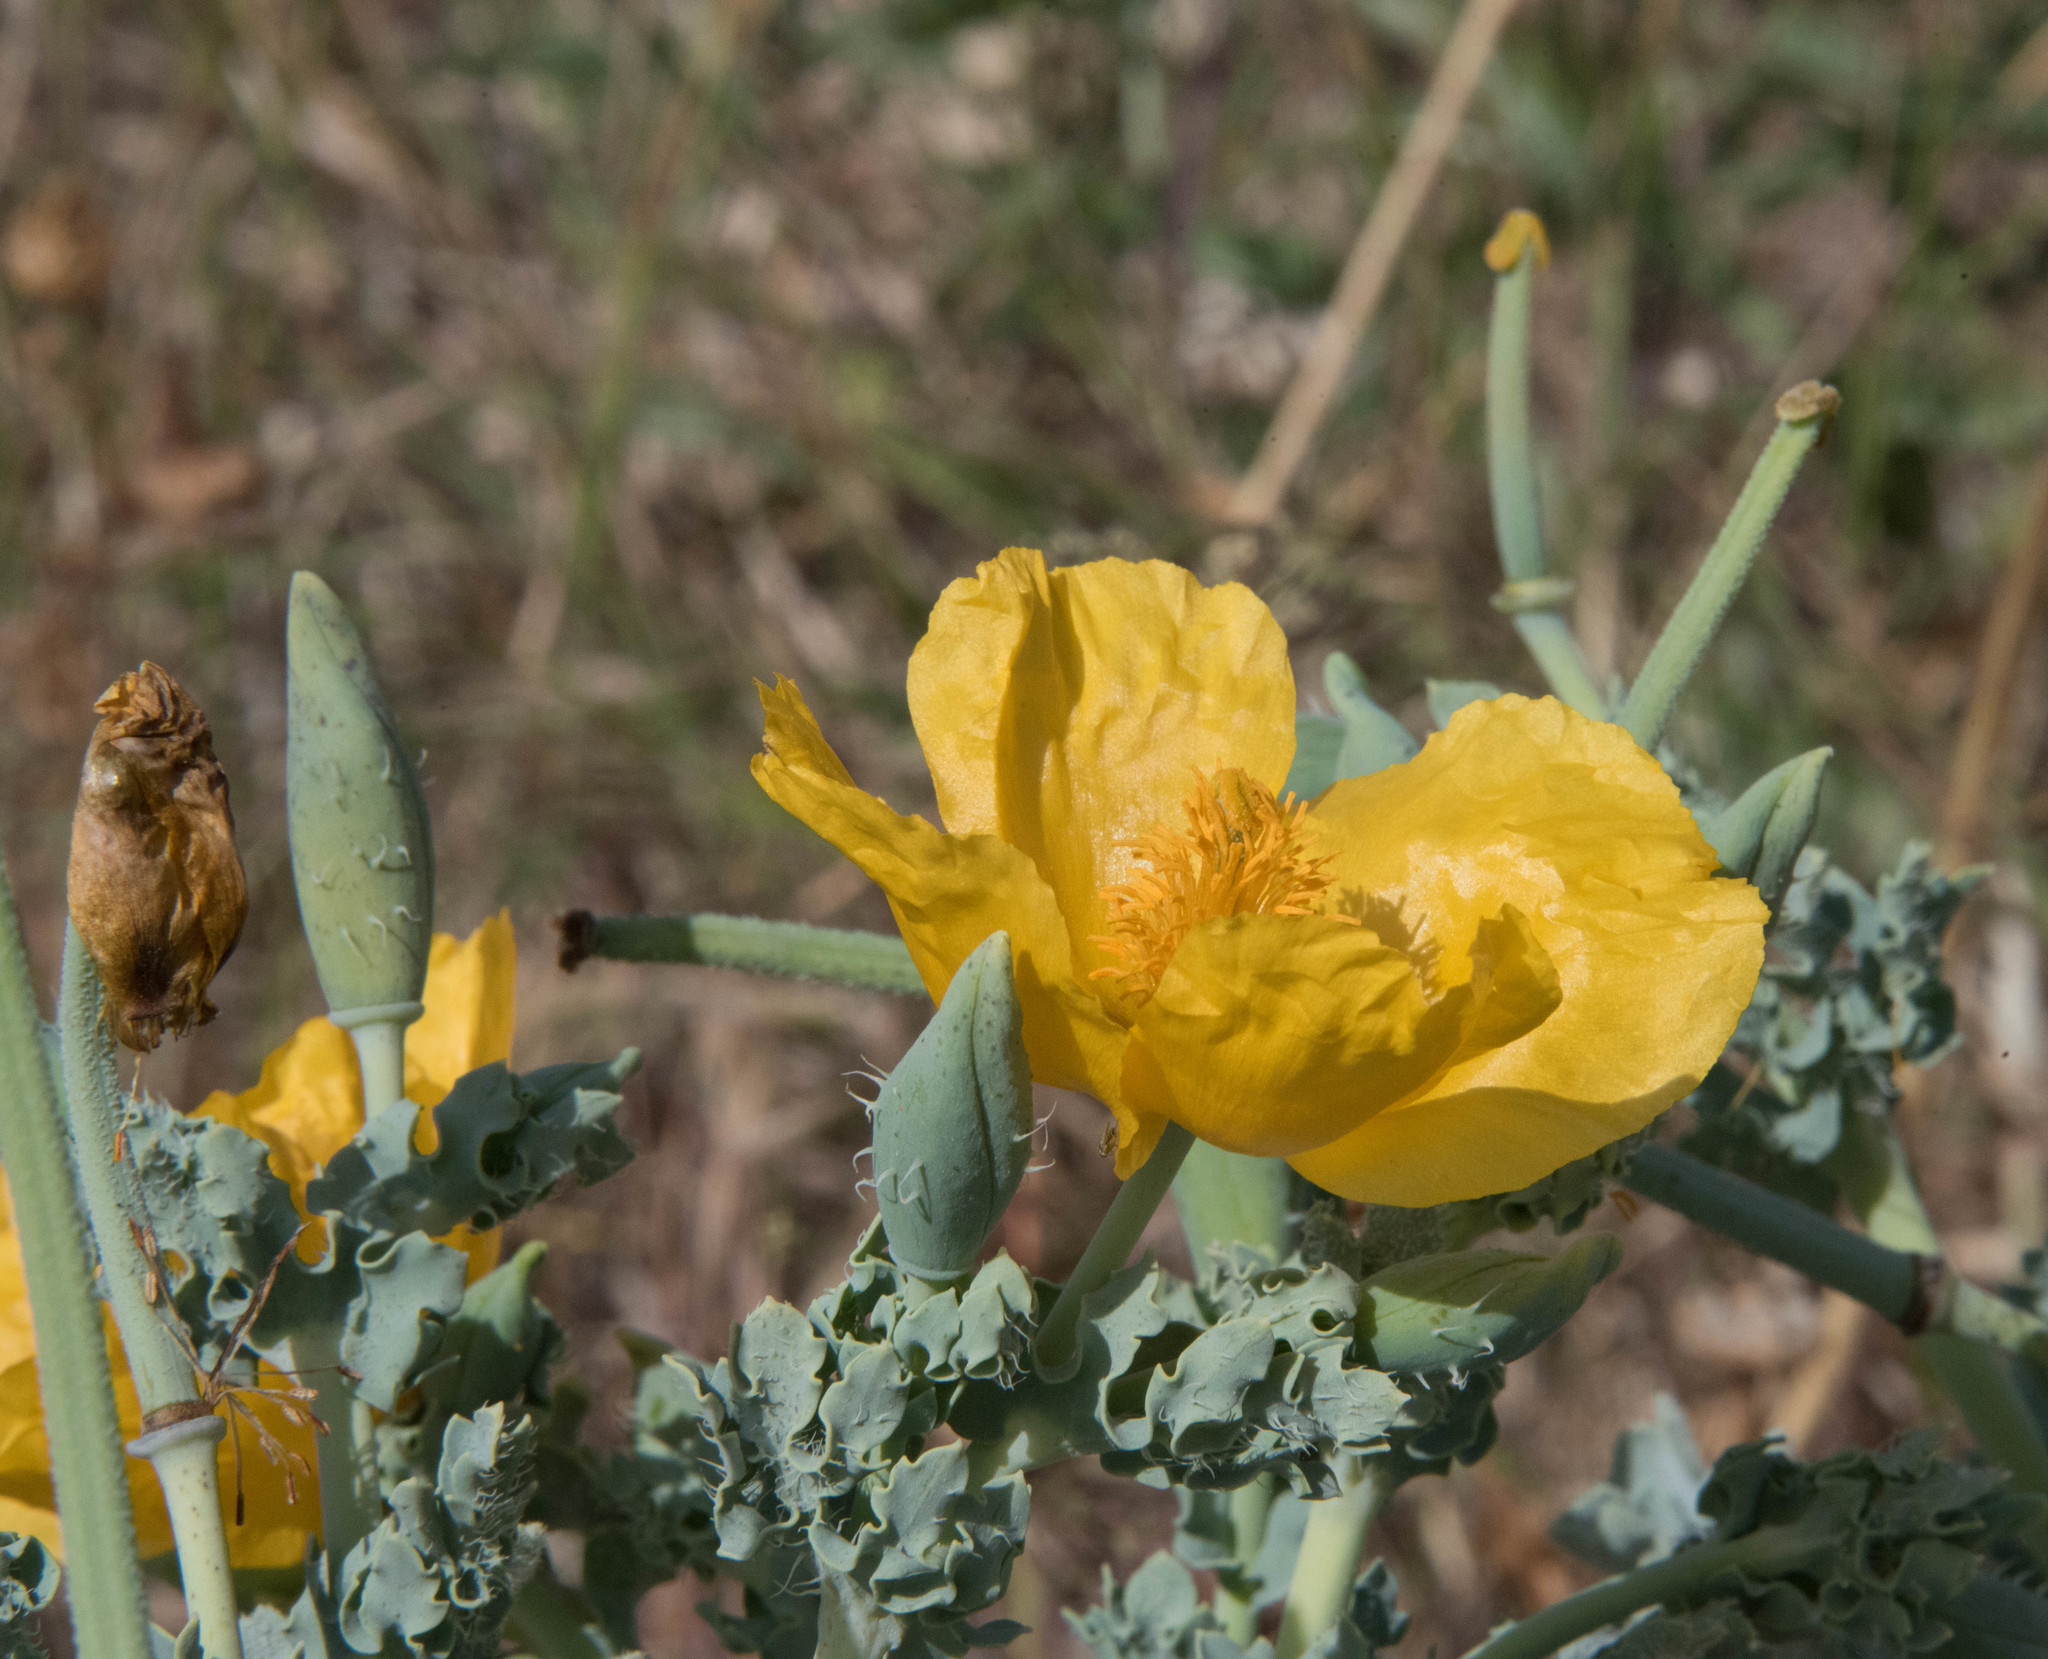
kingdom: Plantae
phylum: Tracheophyta
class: Magnoliopsida
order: Ranunculales
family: Papaveraceae
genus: Glaucium
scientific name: Glaucium flavum
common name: Yellow horned-poppy
